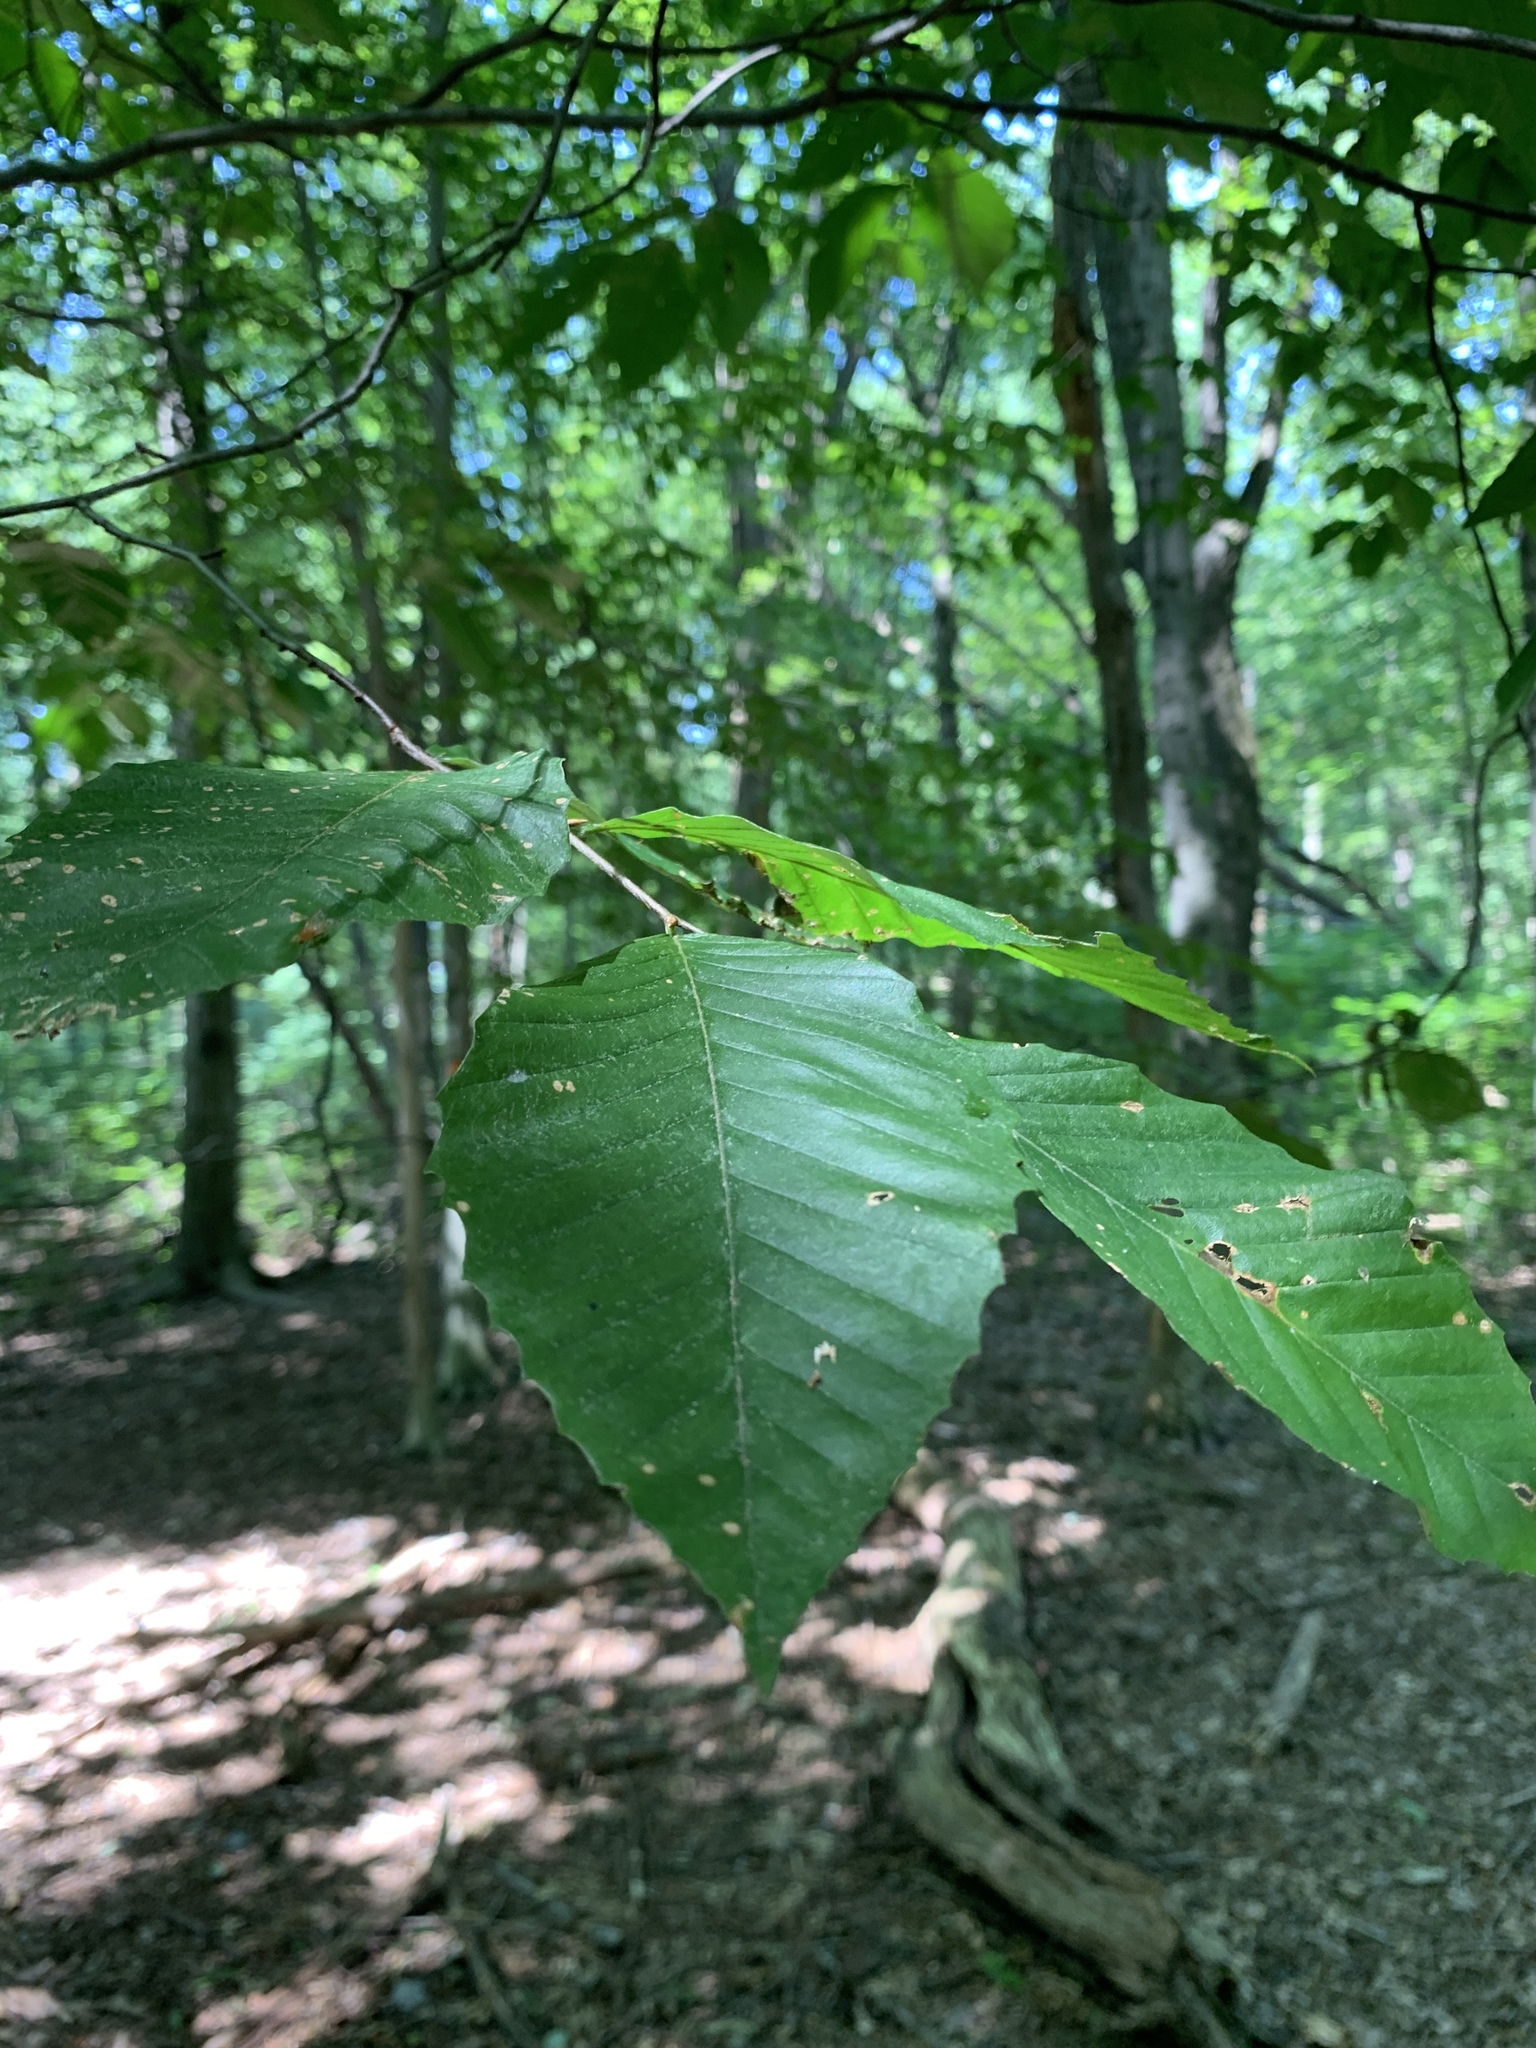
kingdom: Plantae
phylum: Tracheophyta
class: Magnoliopsida
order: Fagales
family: Fagaceae
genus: Fagus
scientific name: Fagus grandifolia
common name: American beech
